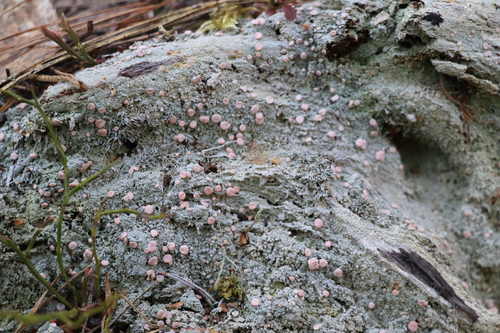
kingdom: Fungi
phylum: Ascomycota
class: Lecanoromycetes
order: Pertusariales
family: Icmadophilaceae
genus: Icmadophila
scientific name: Icmadophila ericetorum
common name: Candy lichen
